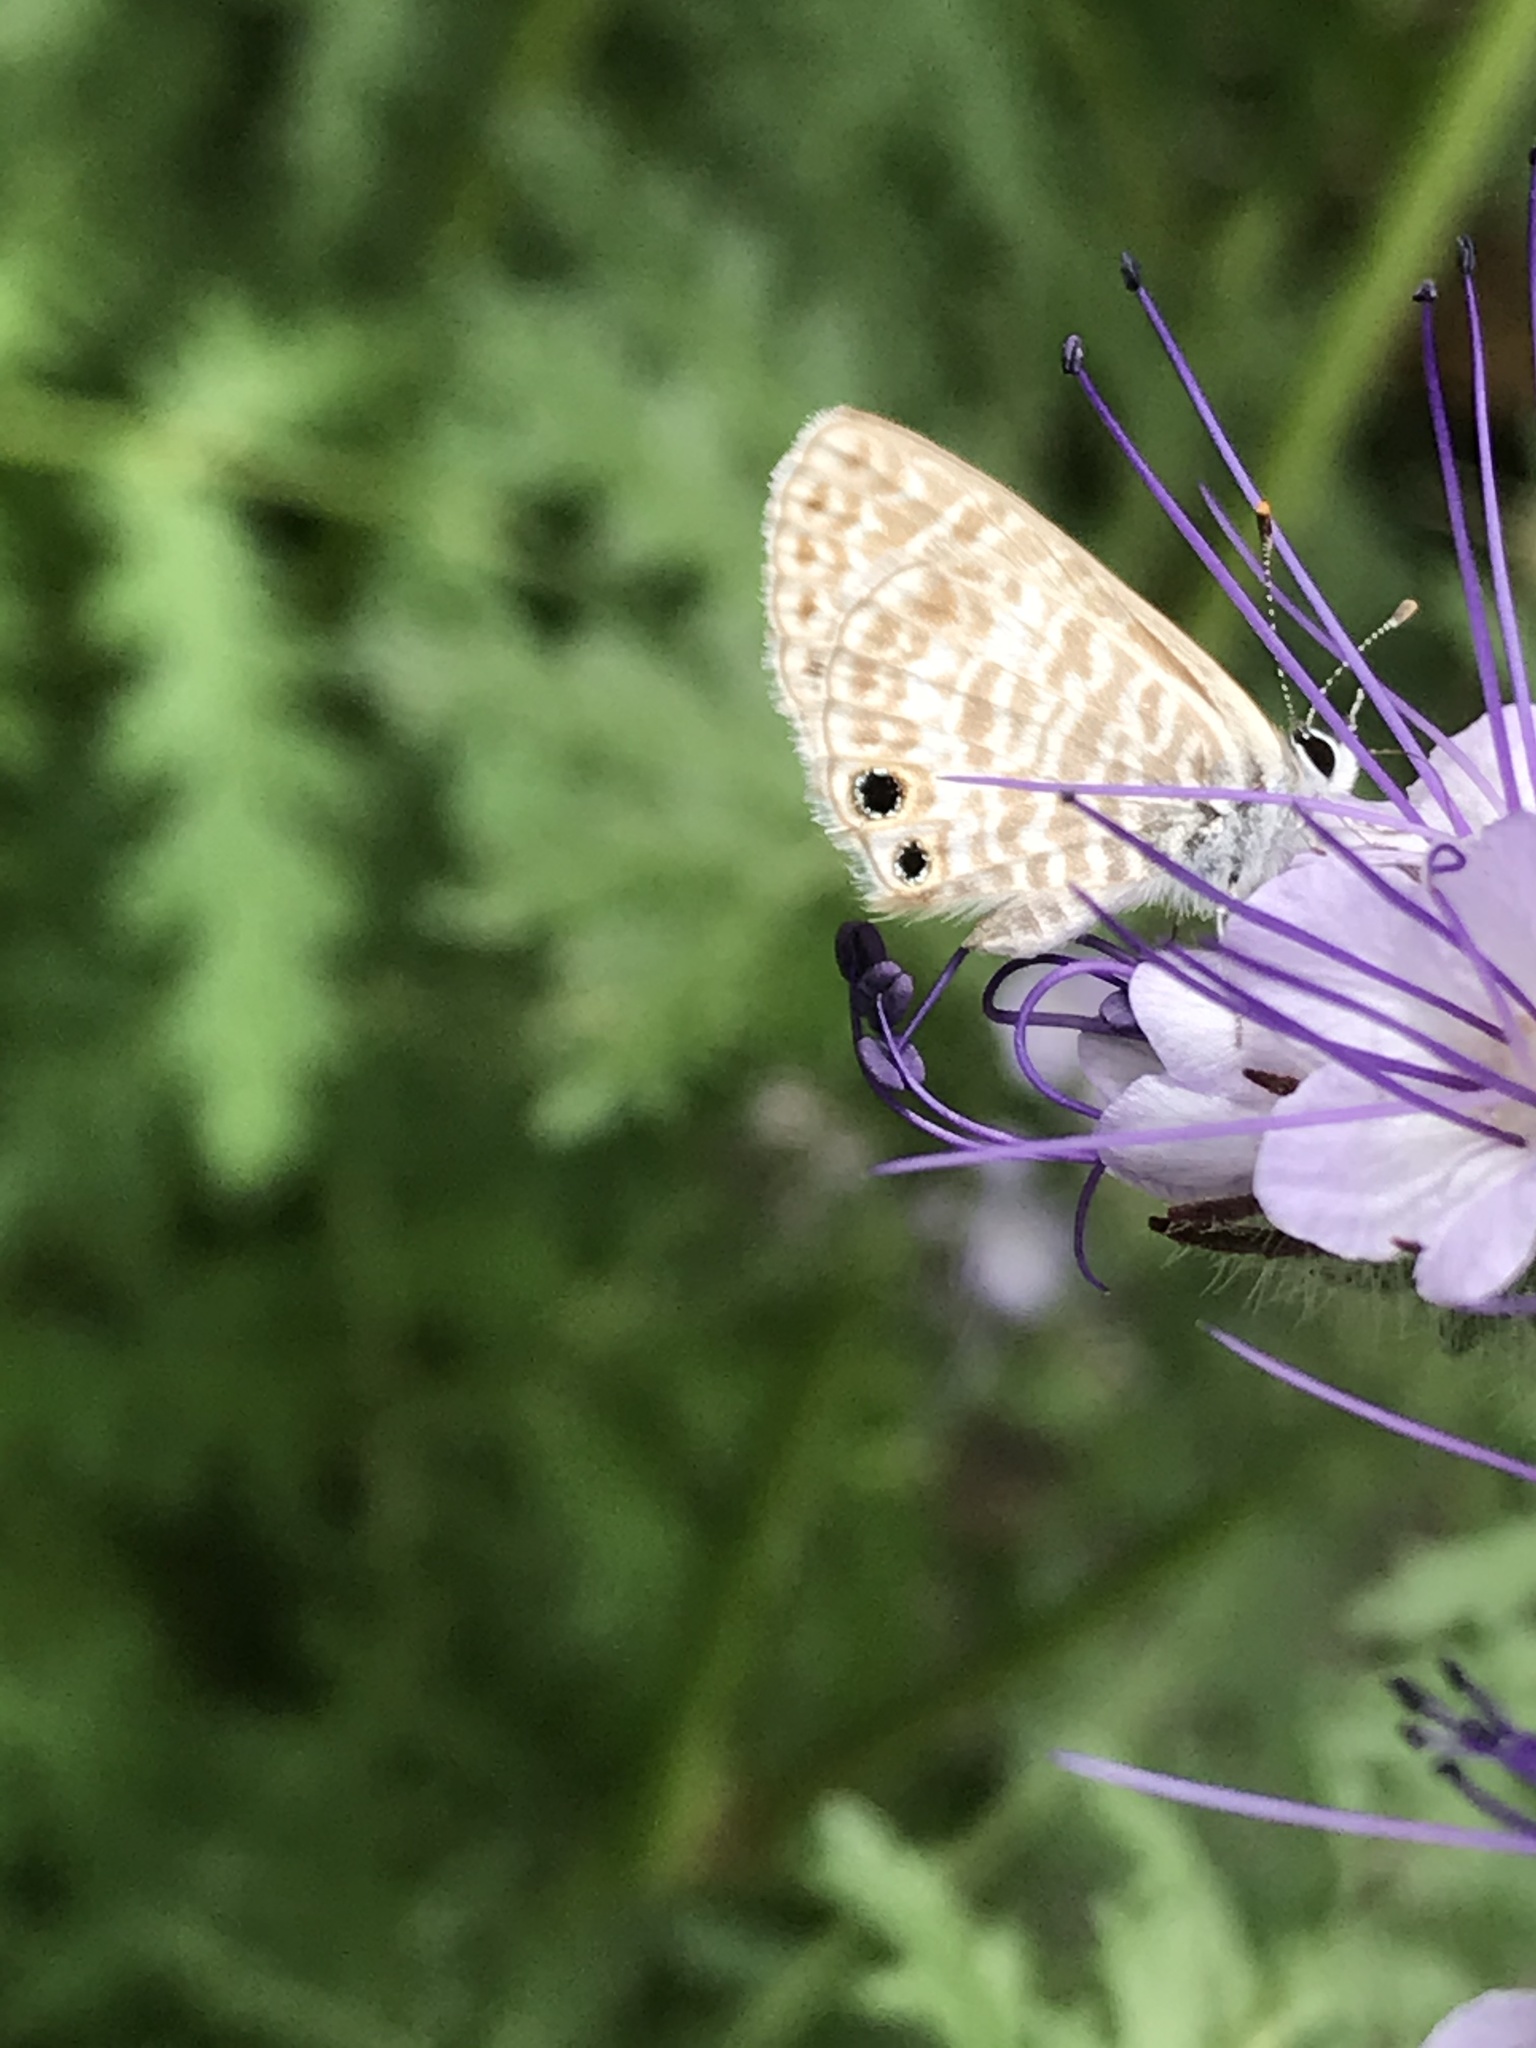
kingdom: Animalia
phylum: Arthropoda
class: Insecta
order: Lepidoptera
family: Lycaenidae
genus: Leptotes
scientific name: Leptotes marina
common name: Marine blue
